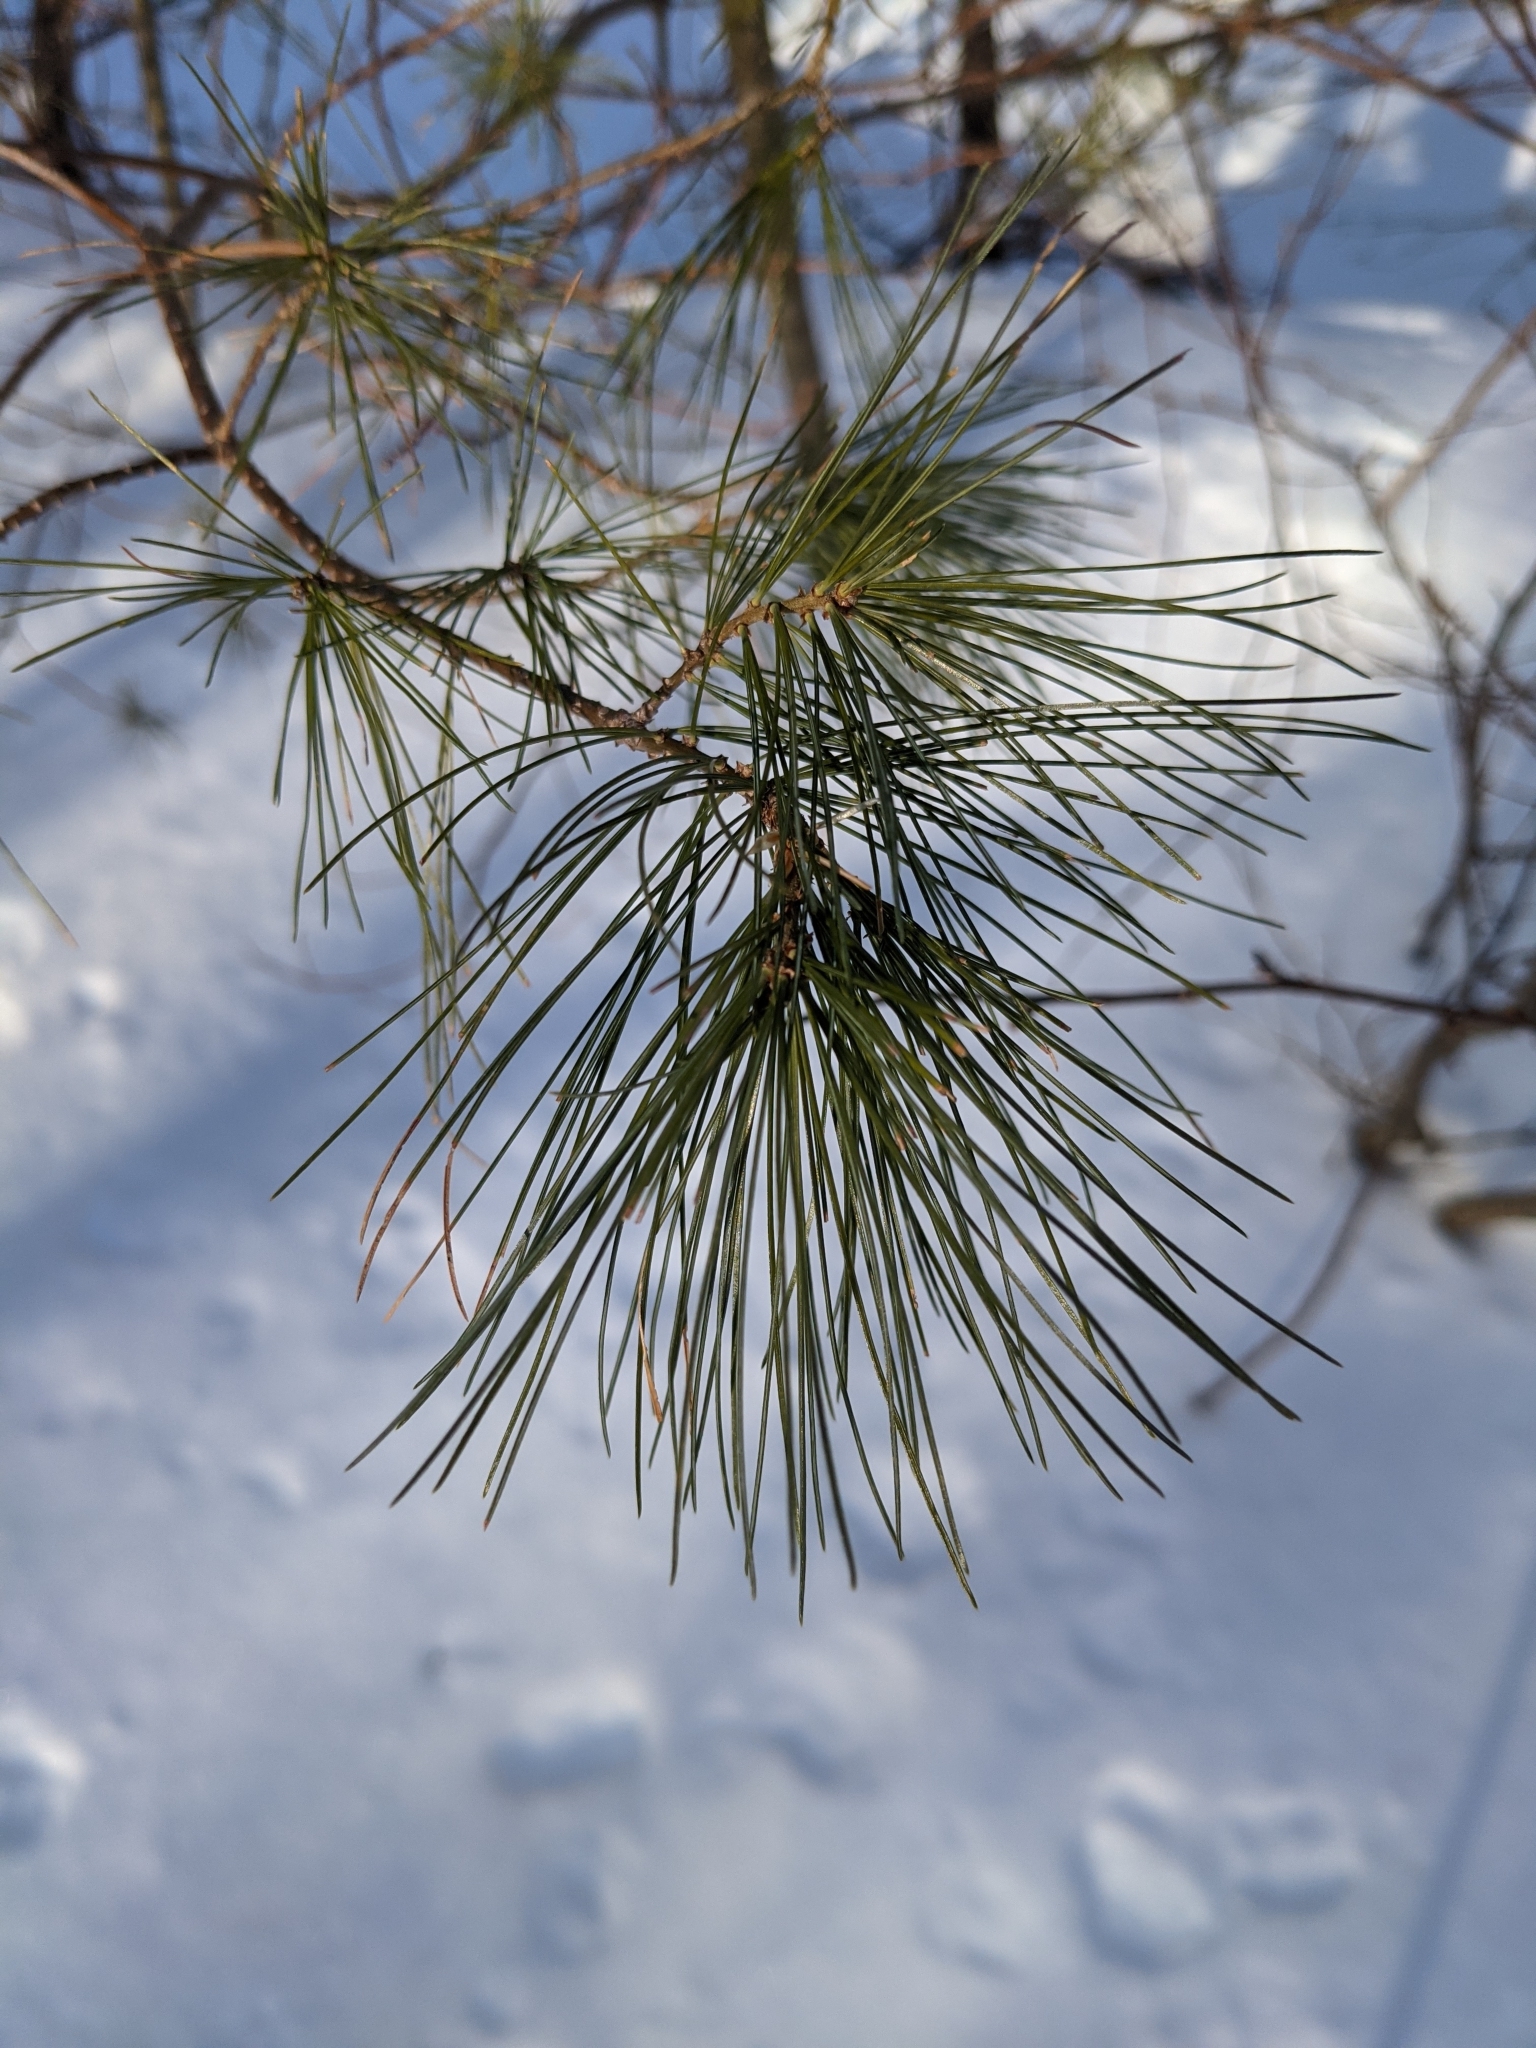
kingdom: Plantae
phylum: Tracheophyta
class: Pinopsida
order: Pinales
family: Pinaceae
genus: Pinus
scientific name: Pinus strobus
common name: Weymouth pine
